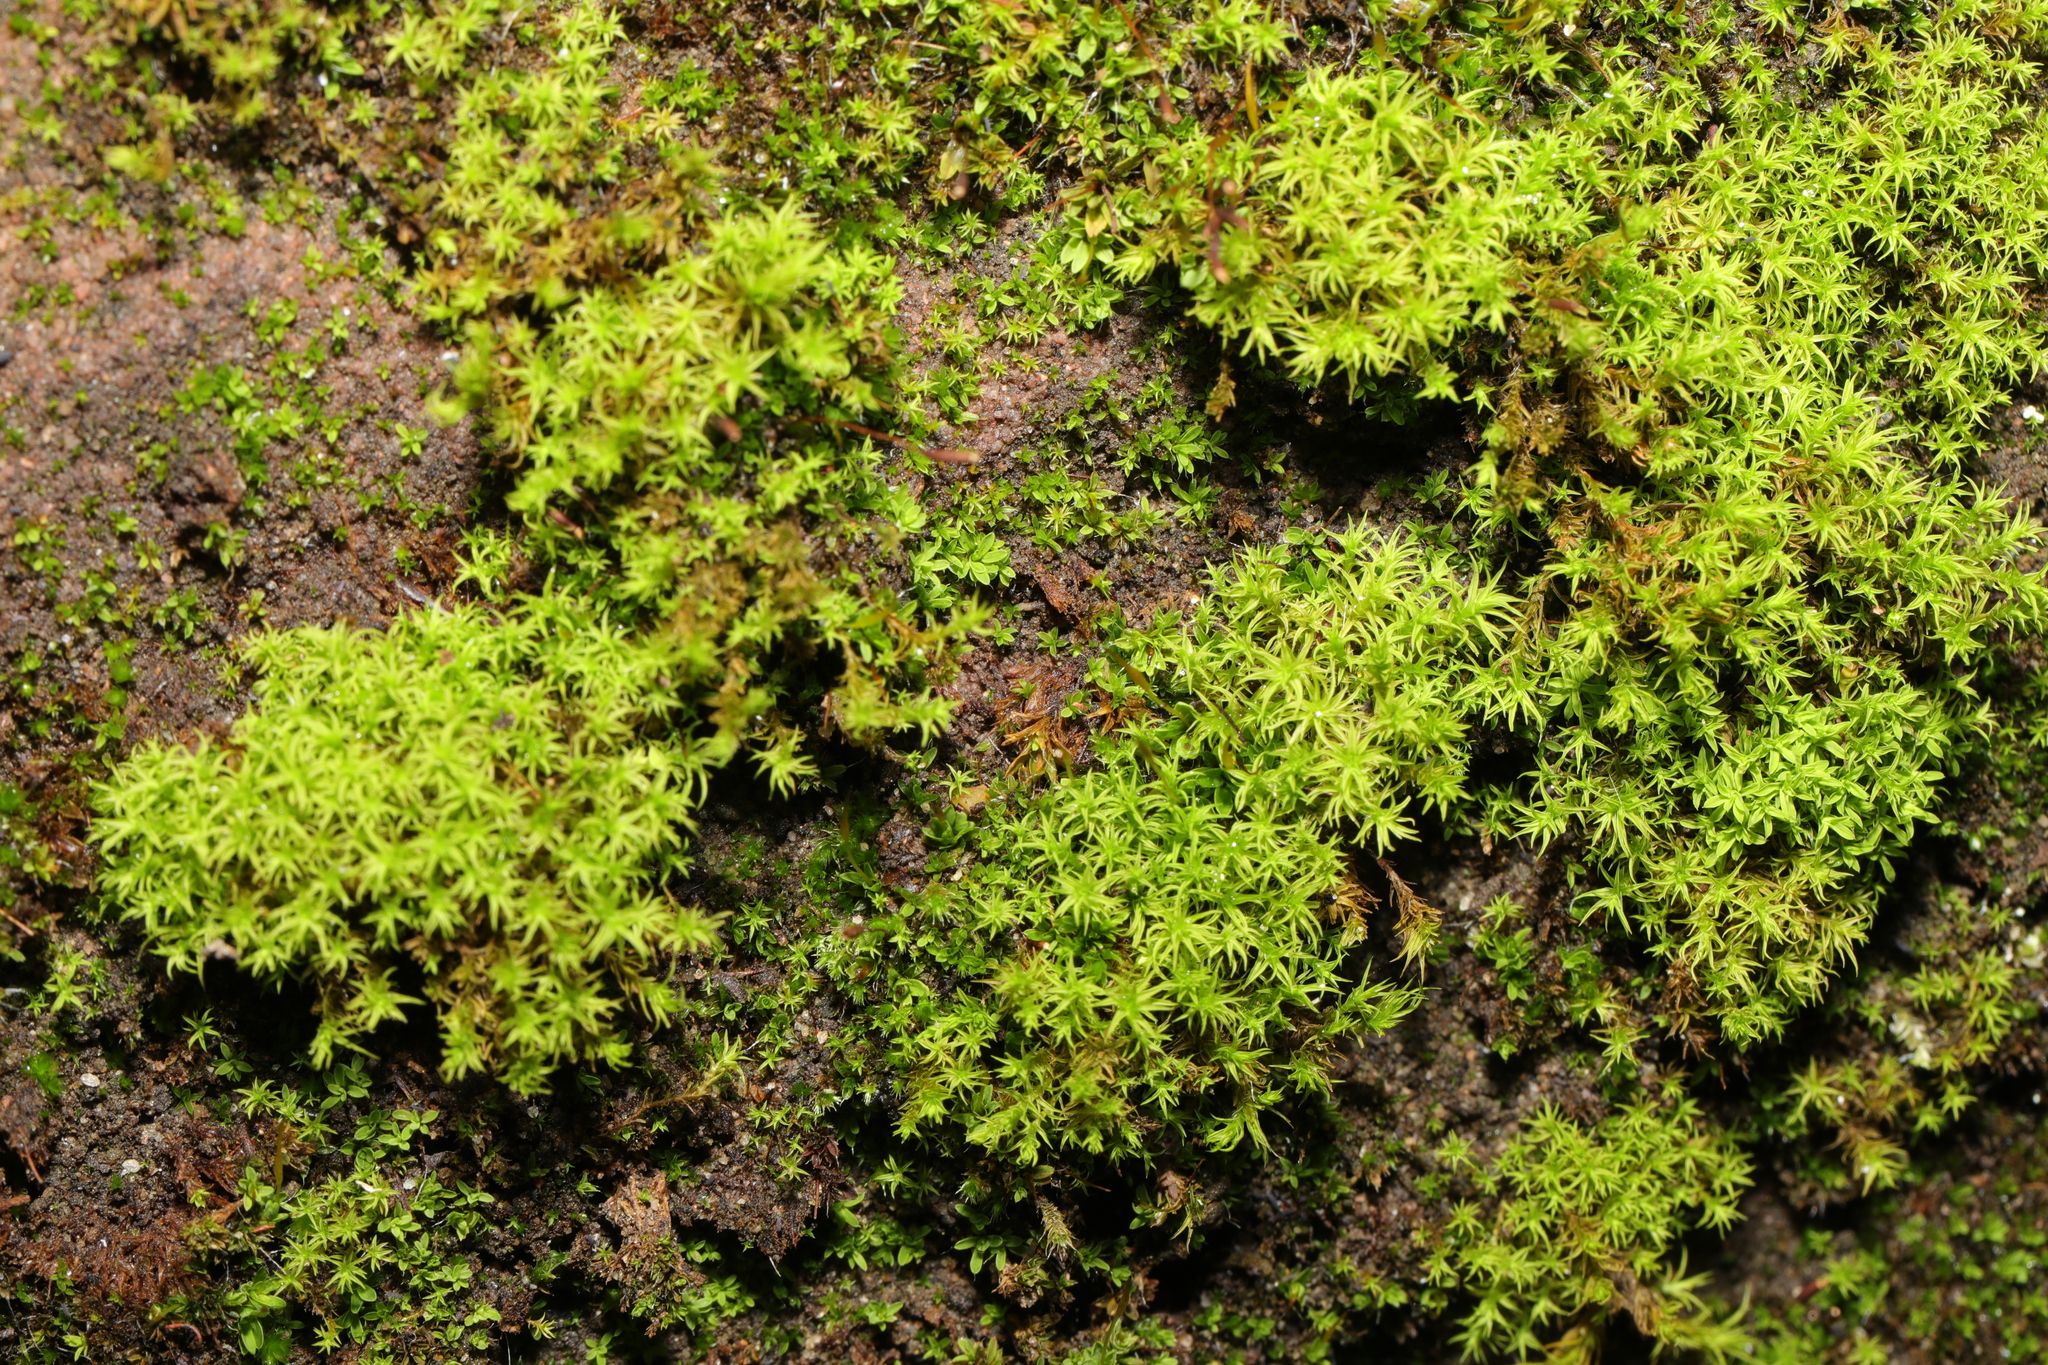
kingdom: Plantae
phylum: Bryophyta
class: Bryopsida
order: Pottiales
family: Pottiaceae
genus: Barbula
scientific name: Barbula unguiculata
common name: Prickly beard moss
